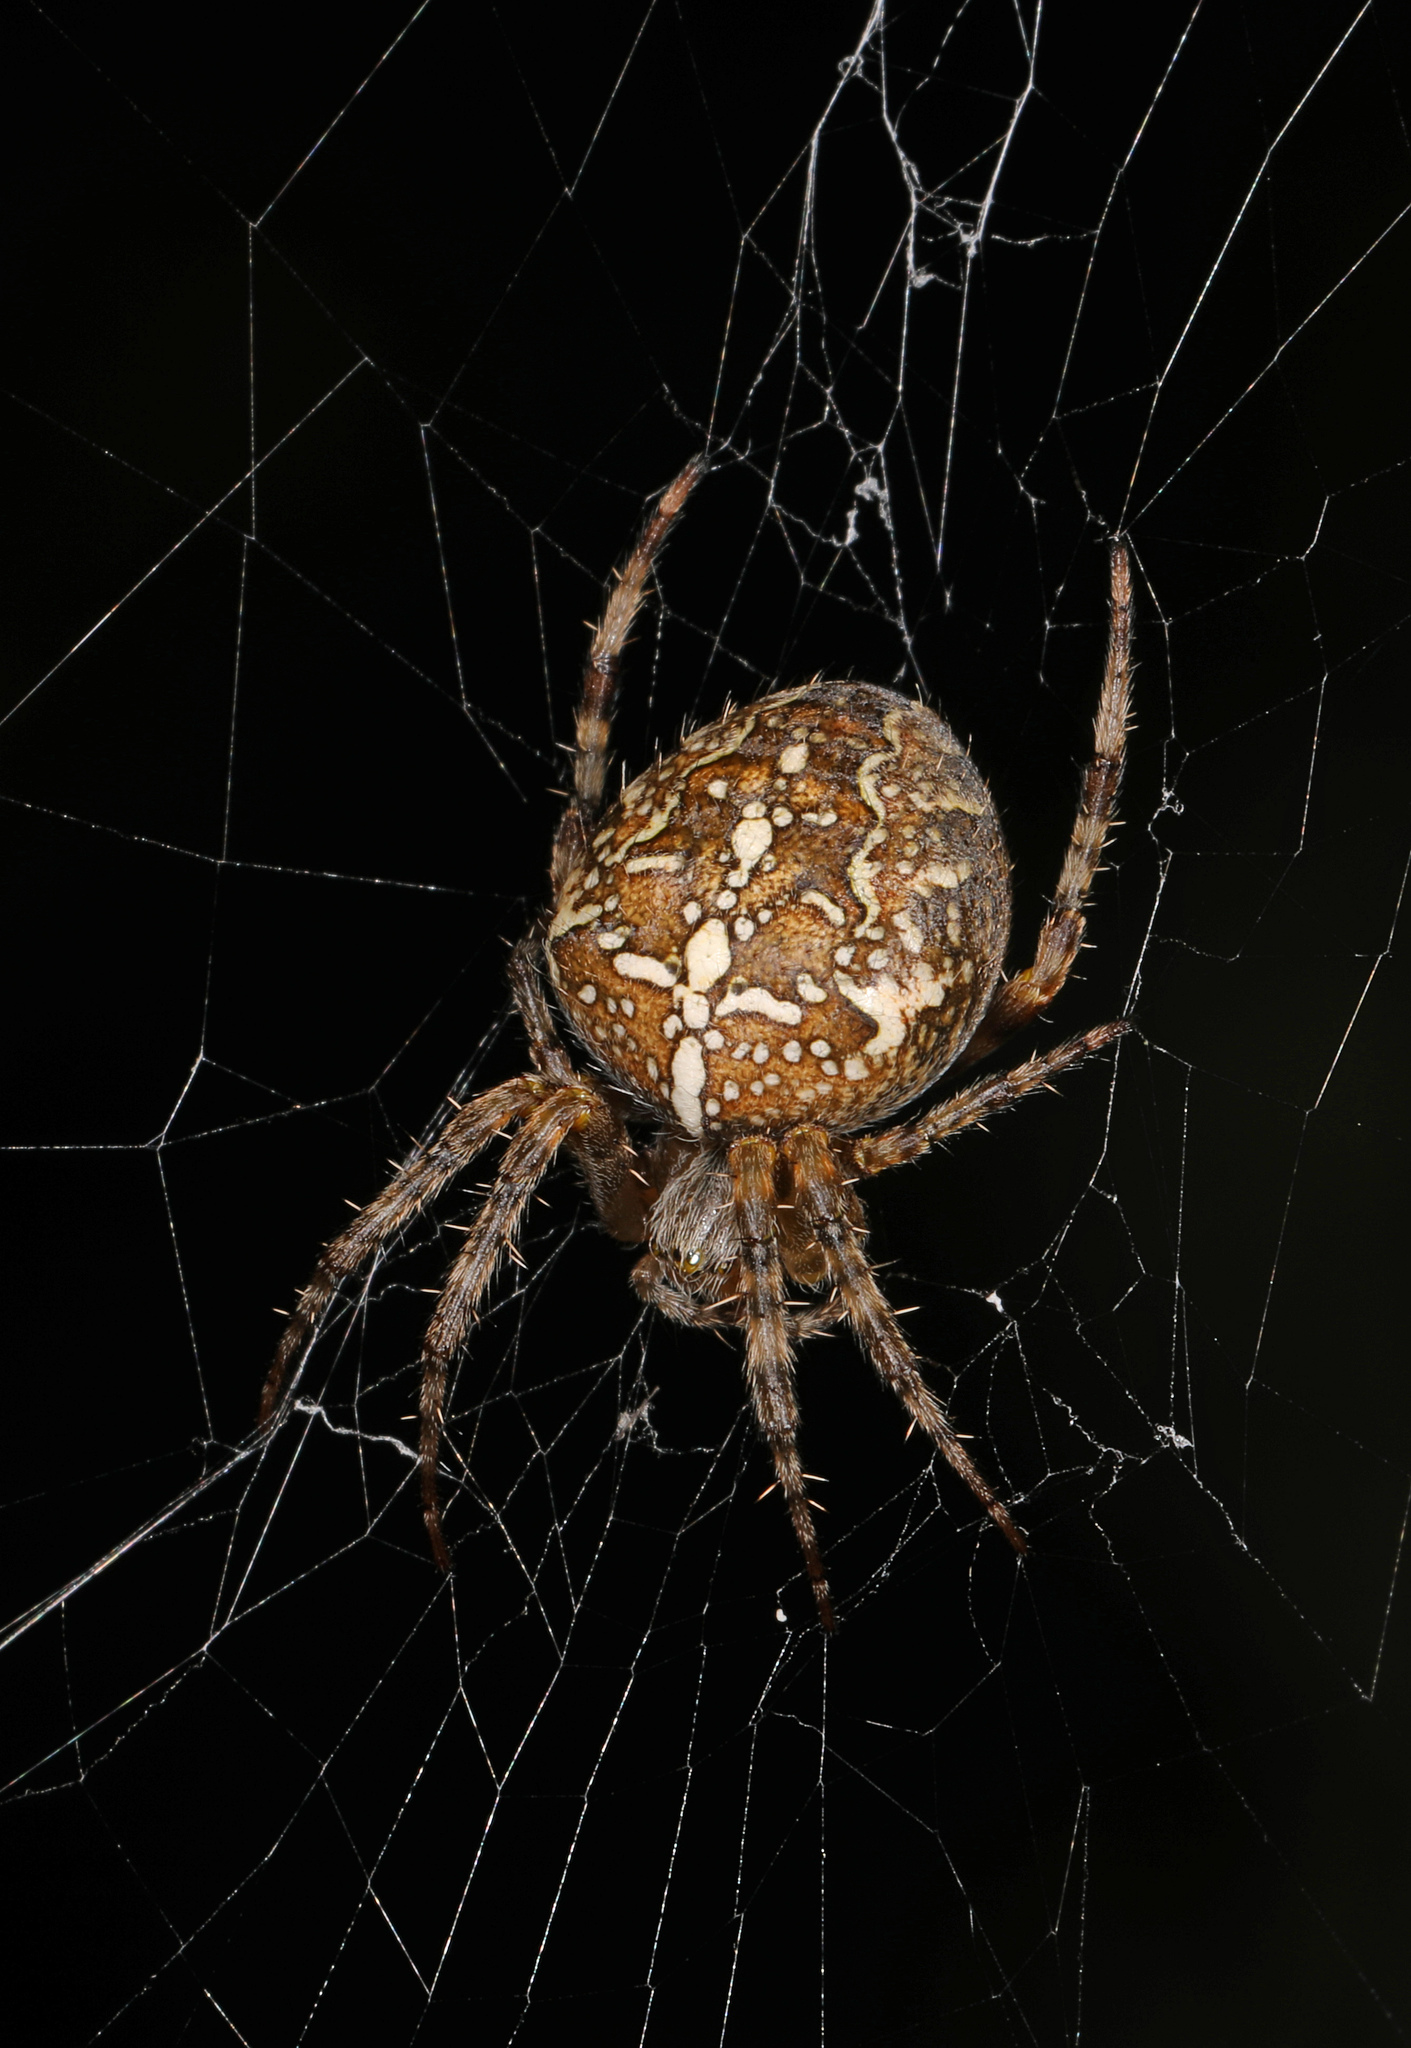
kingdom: Animalia
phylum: Arthropoda
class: Arachnida
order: Araneae
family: Araneidae
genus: Araneus
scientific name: Araneus diadematus
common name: Cross orbweaver
